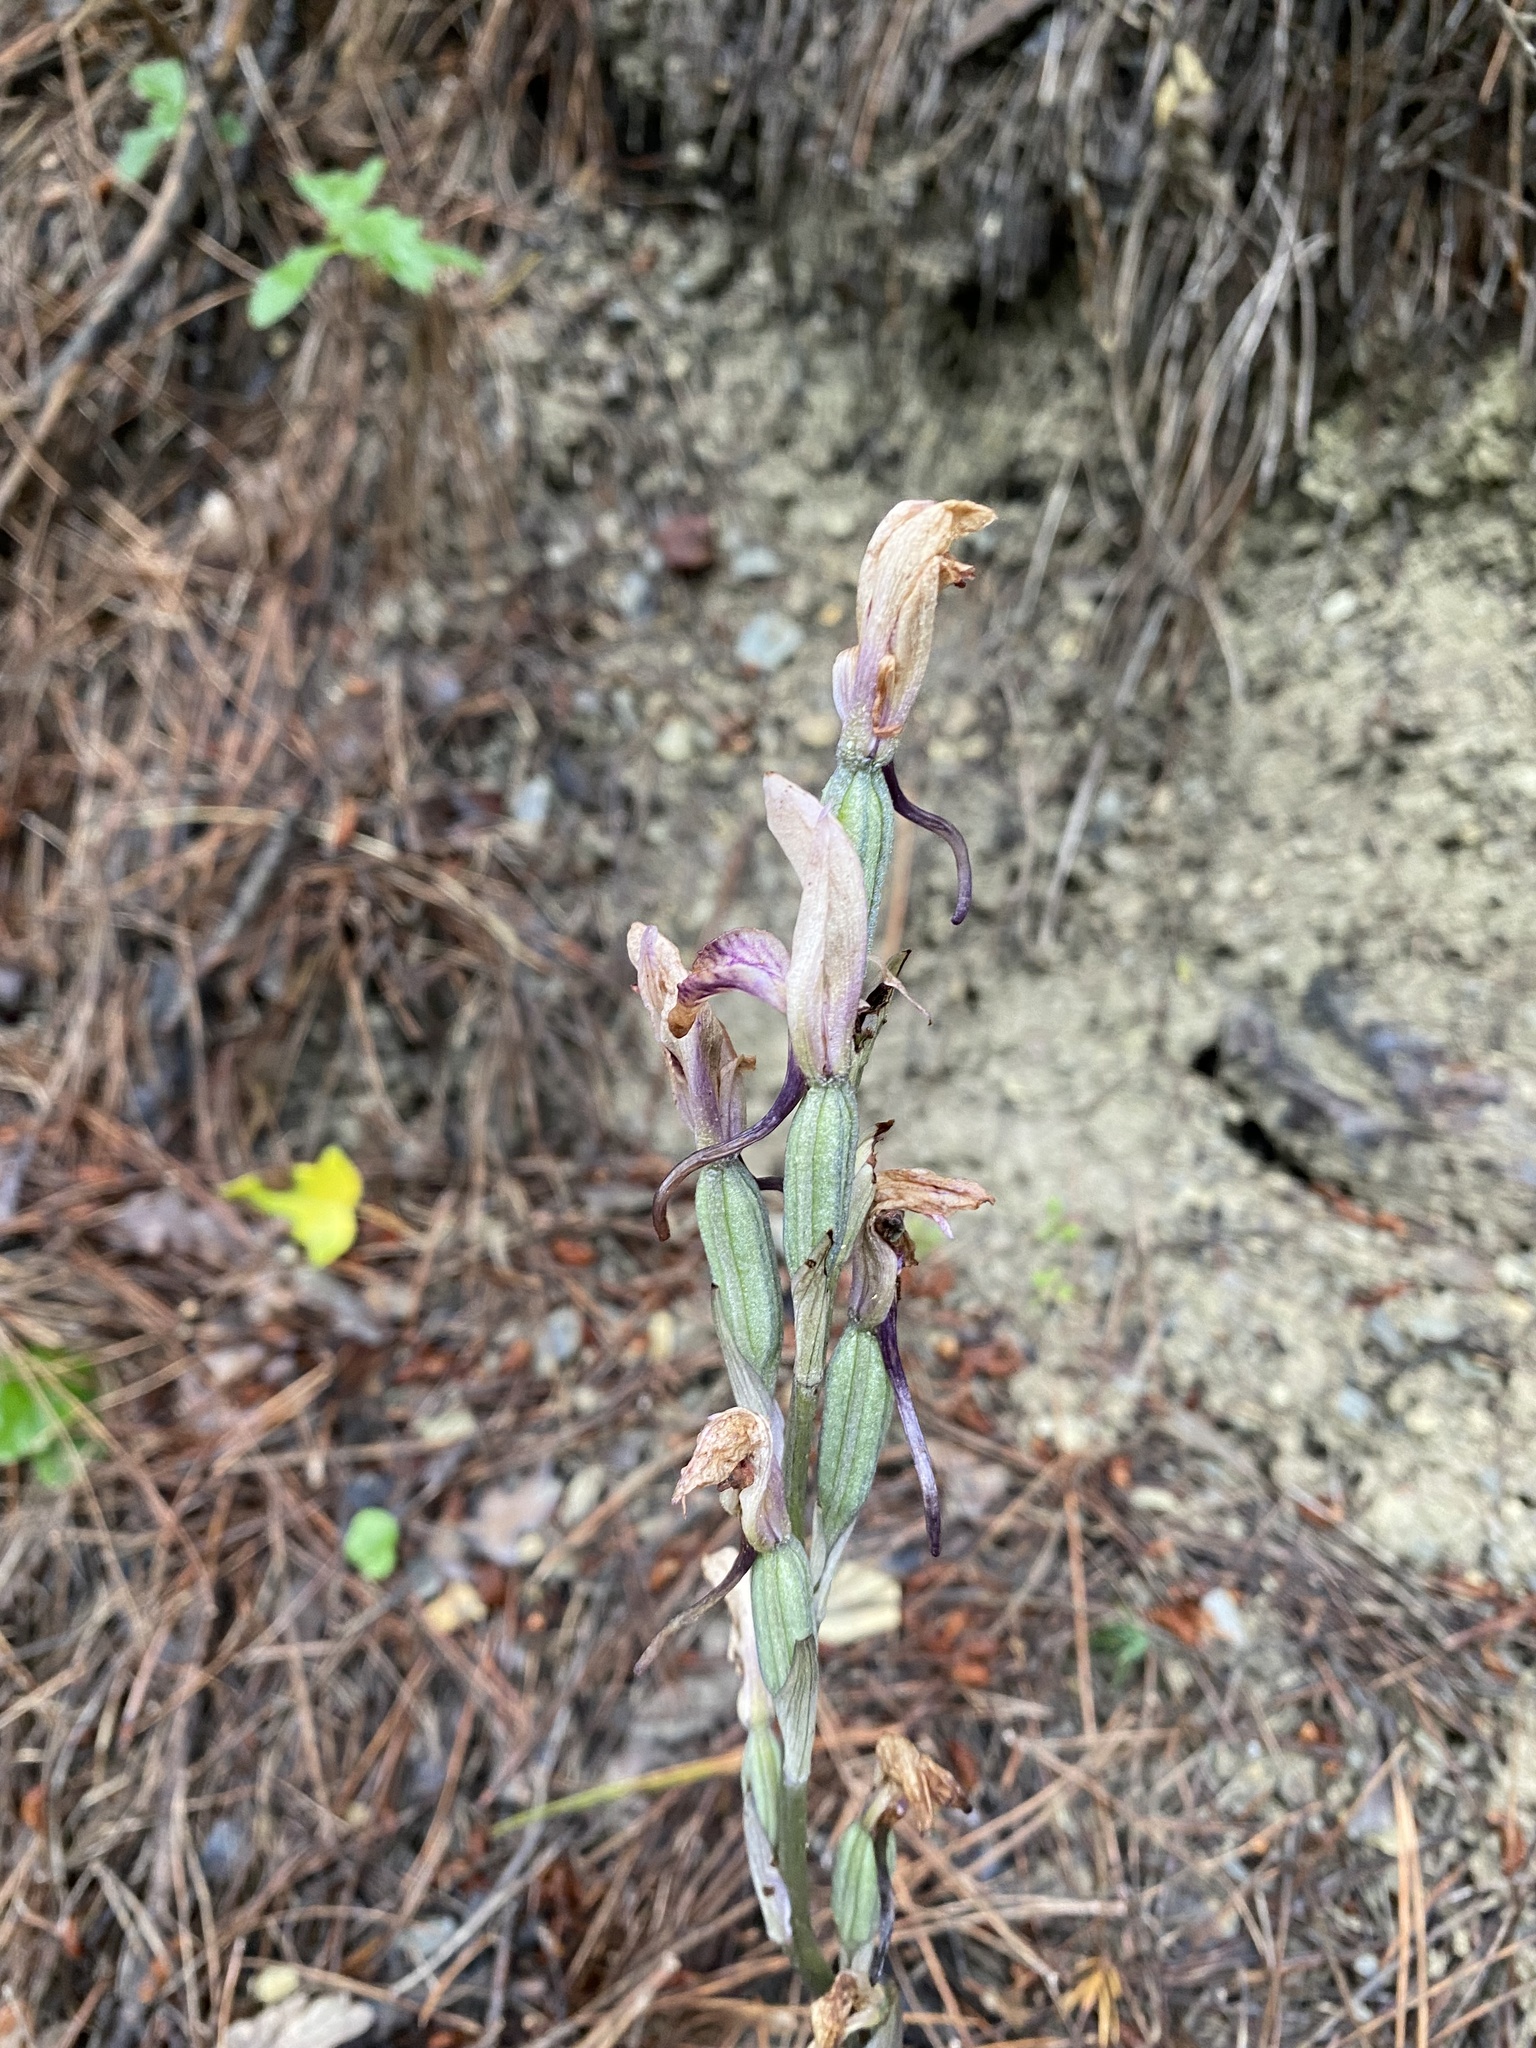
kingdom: Plantae
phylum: Tracheophyta
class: Liliopsida
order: Asparagales
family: Orchidaceae
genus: Limodorum
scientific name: Limodorum abortivum
